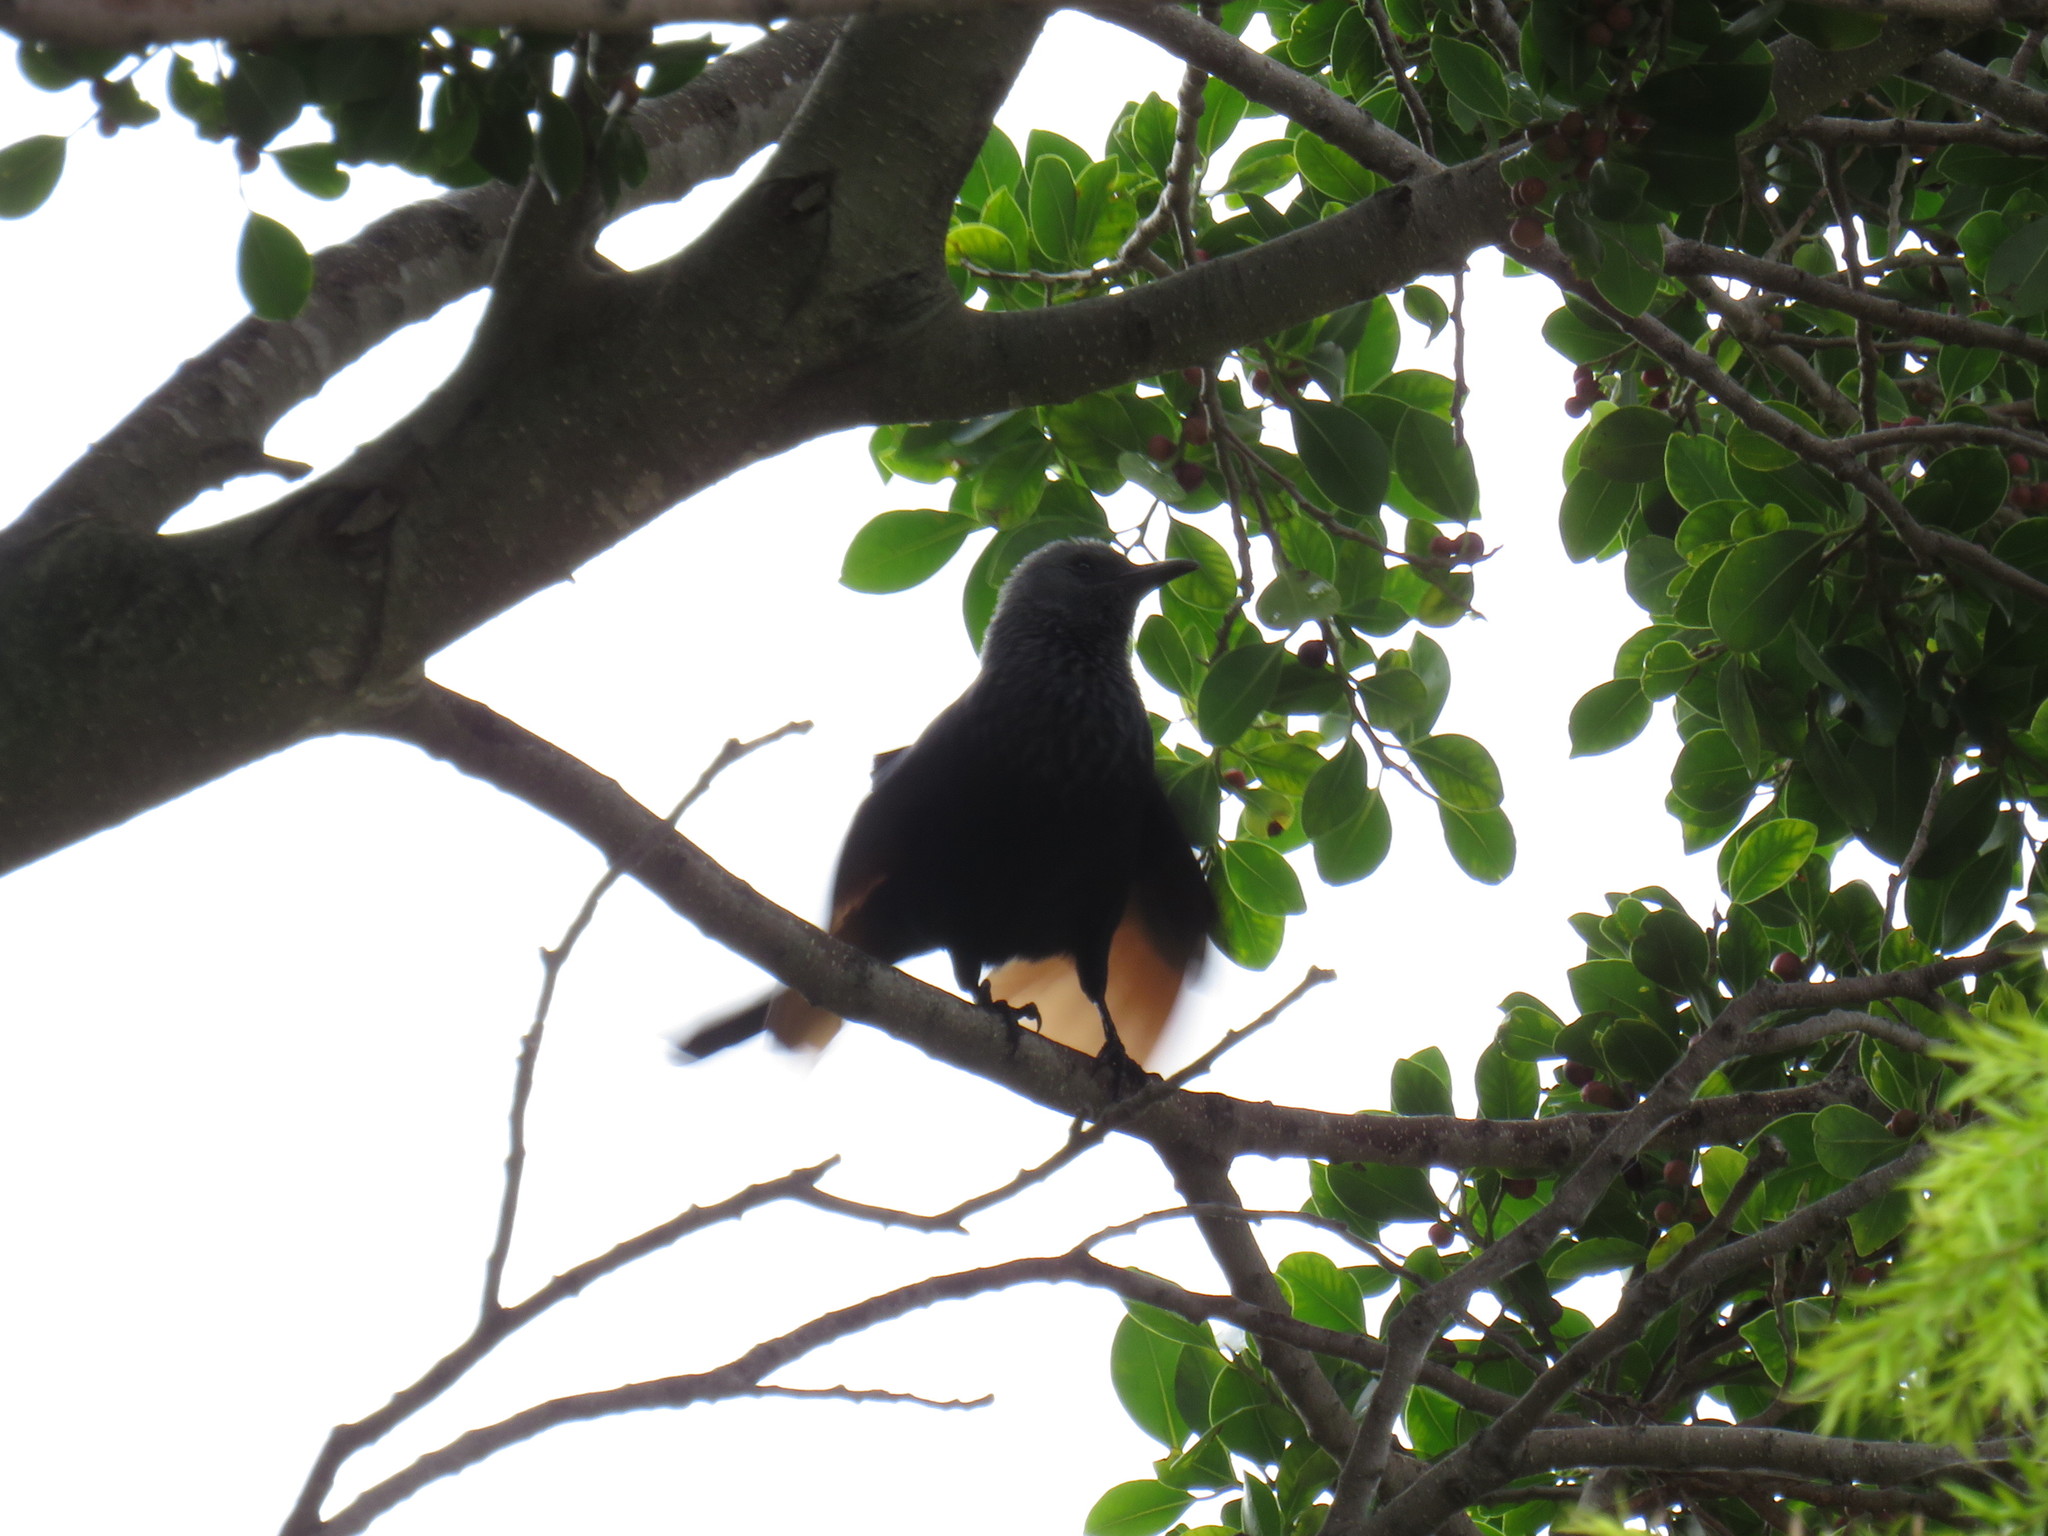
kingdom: Animalia
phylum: Chordata
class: Aves
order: Passeriformes
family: Sturnidae
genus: Onychognathus
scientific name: Onychognathus morio
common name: Red-winged starling
